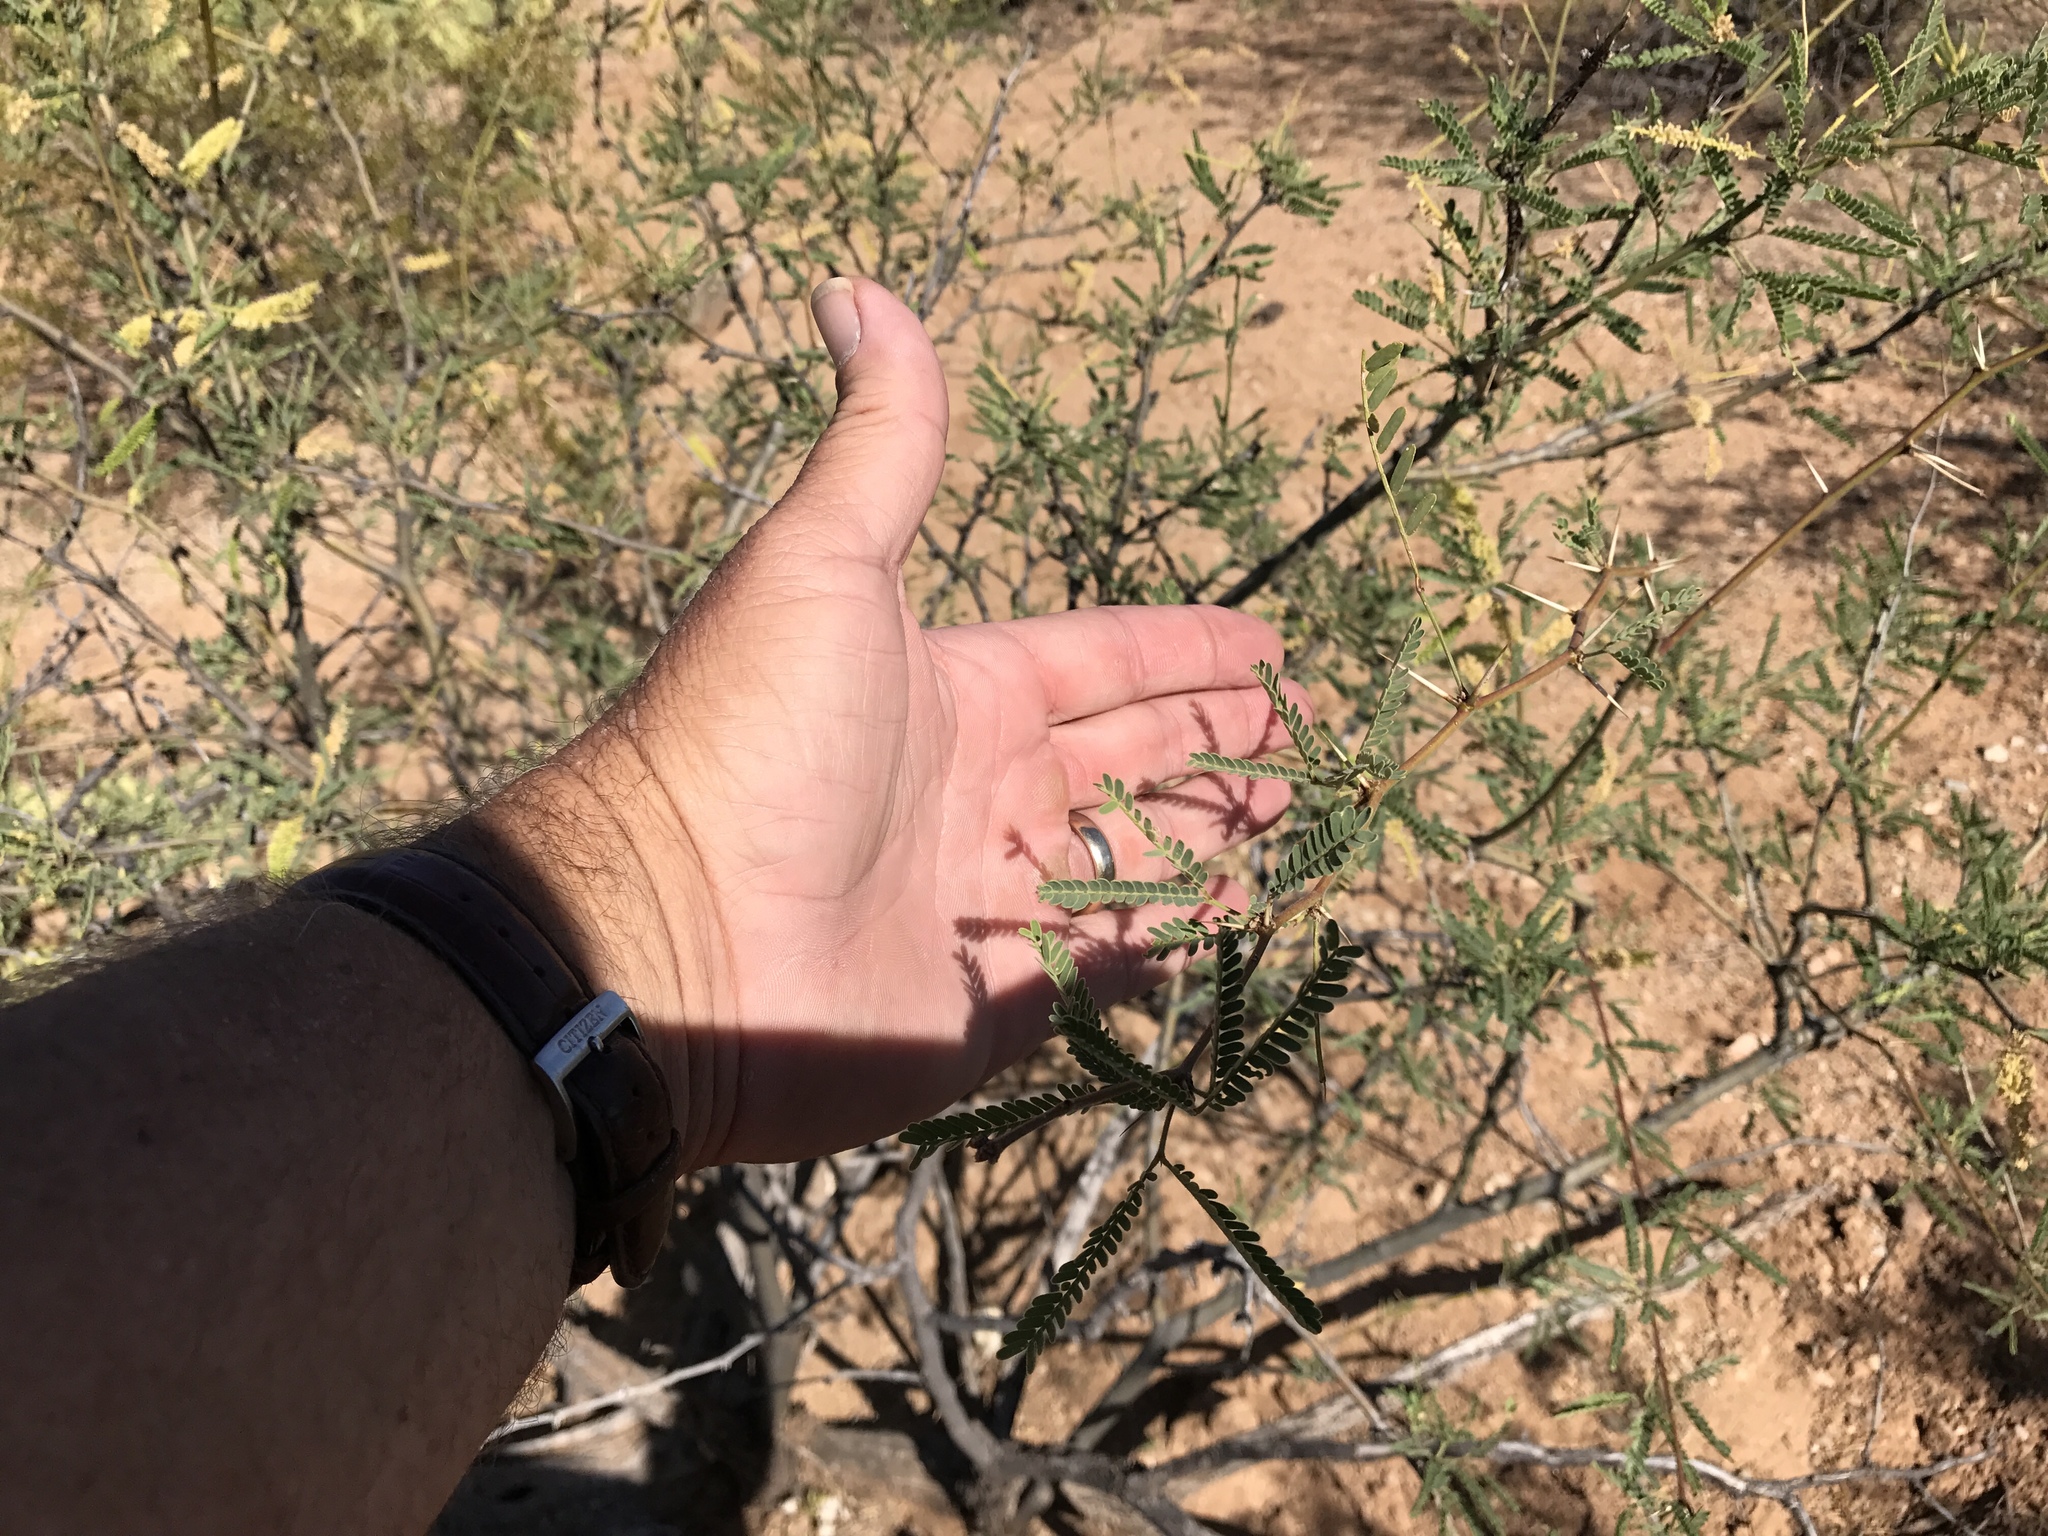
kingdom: Plantae
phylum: Tracheophyta
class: Magnoliopsida
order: Fabales
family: Fabaceae
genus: Prosopis
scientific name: Prosopis velutina
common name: Velvet mesquite
